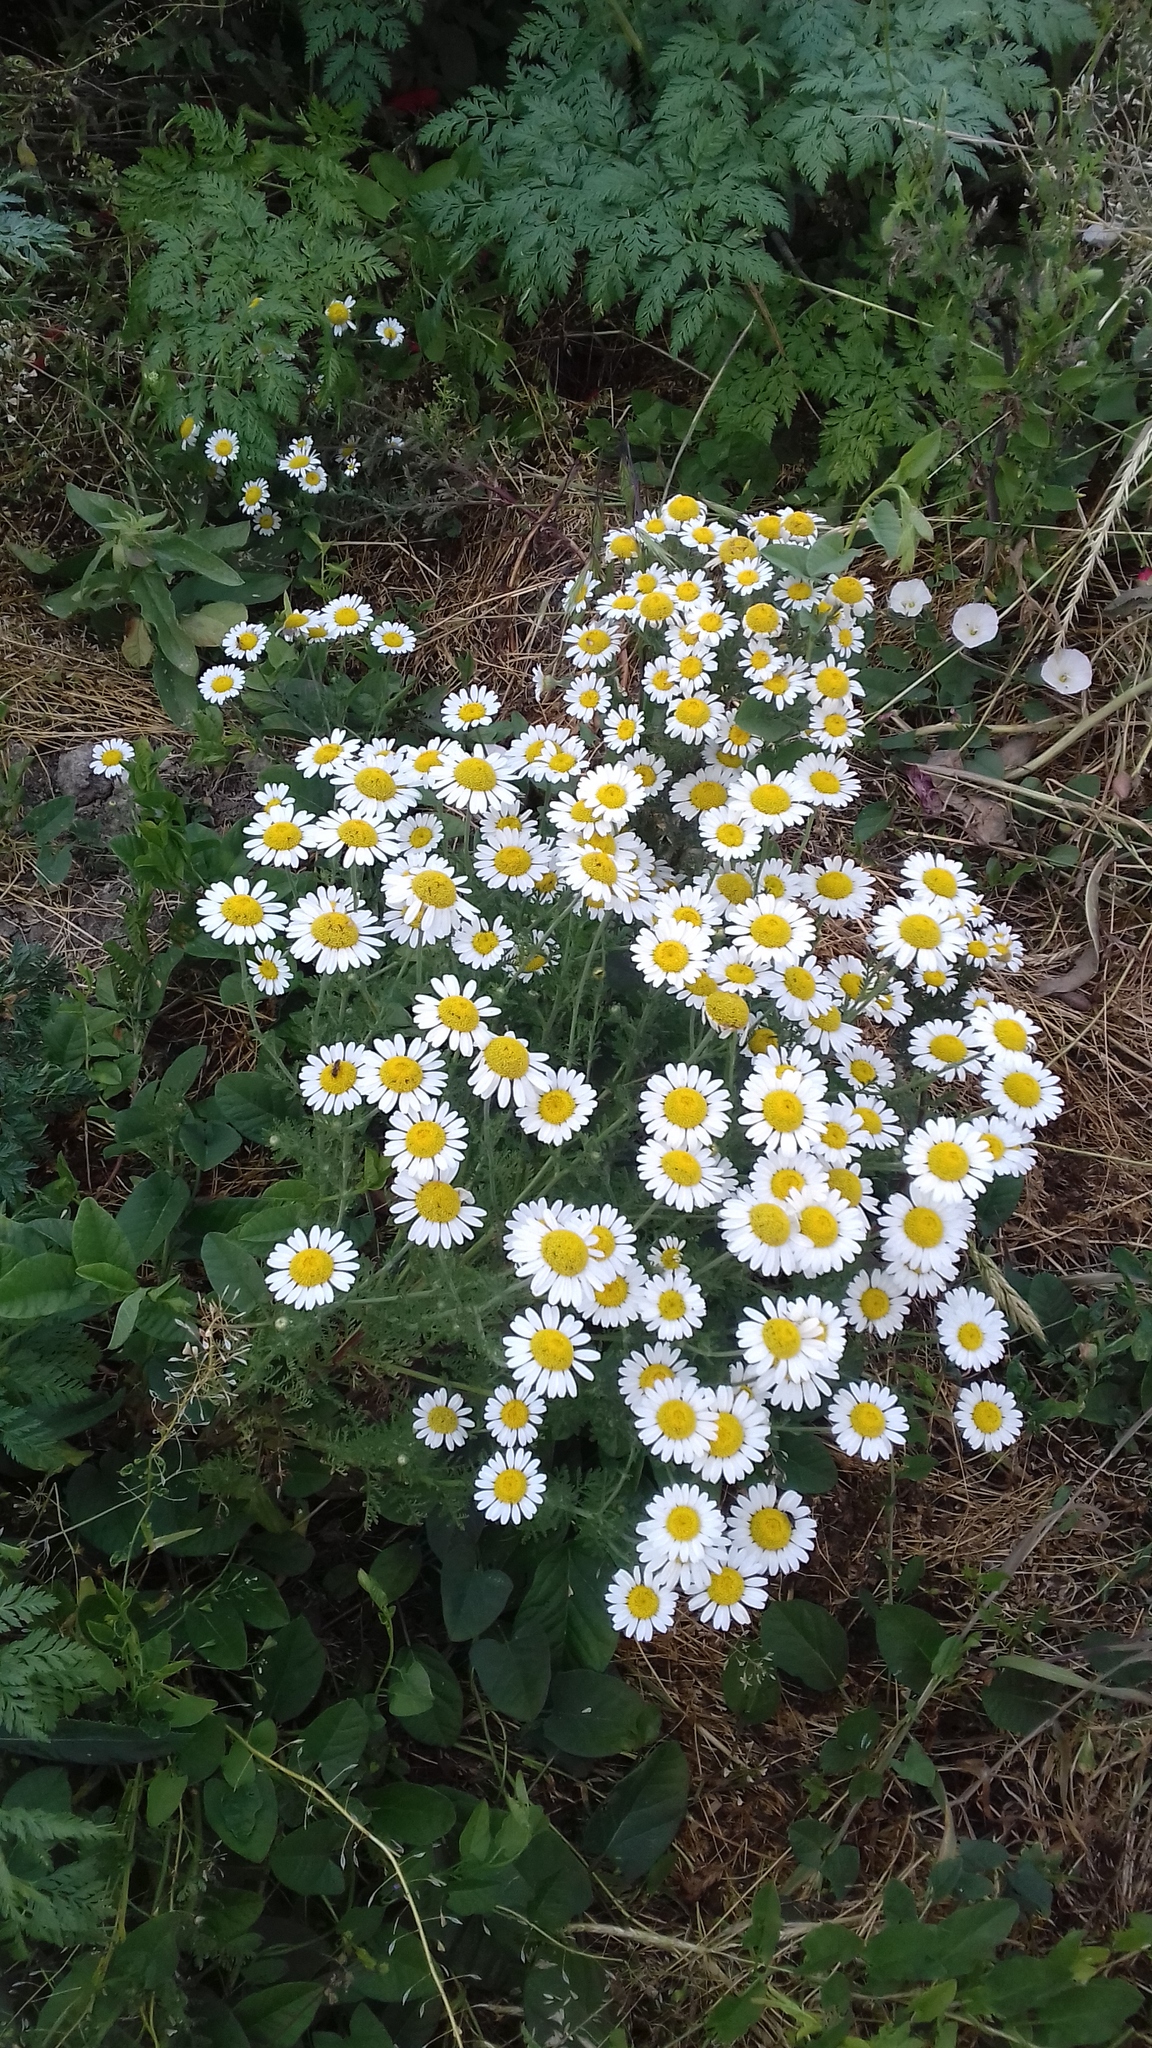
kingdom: Plantae
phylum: Tracheophyta
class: Magnoliopsida
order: Asterales
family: Asteraceae
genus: Anthemis
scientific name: Anthemis arvensis
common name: Corn chamomile
